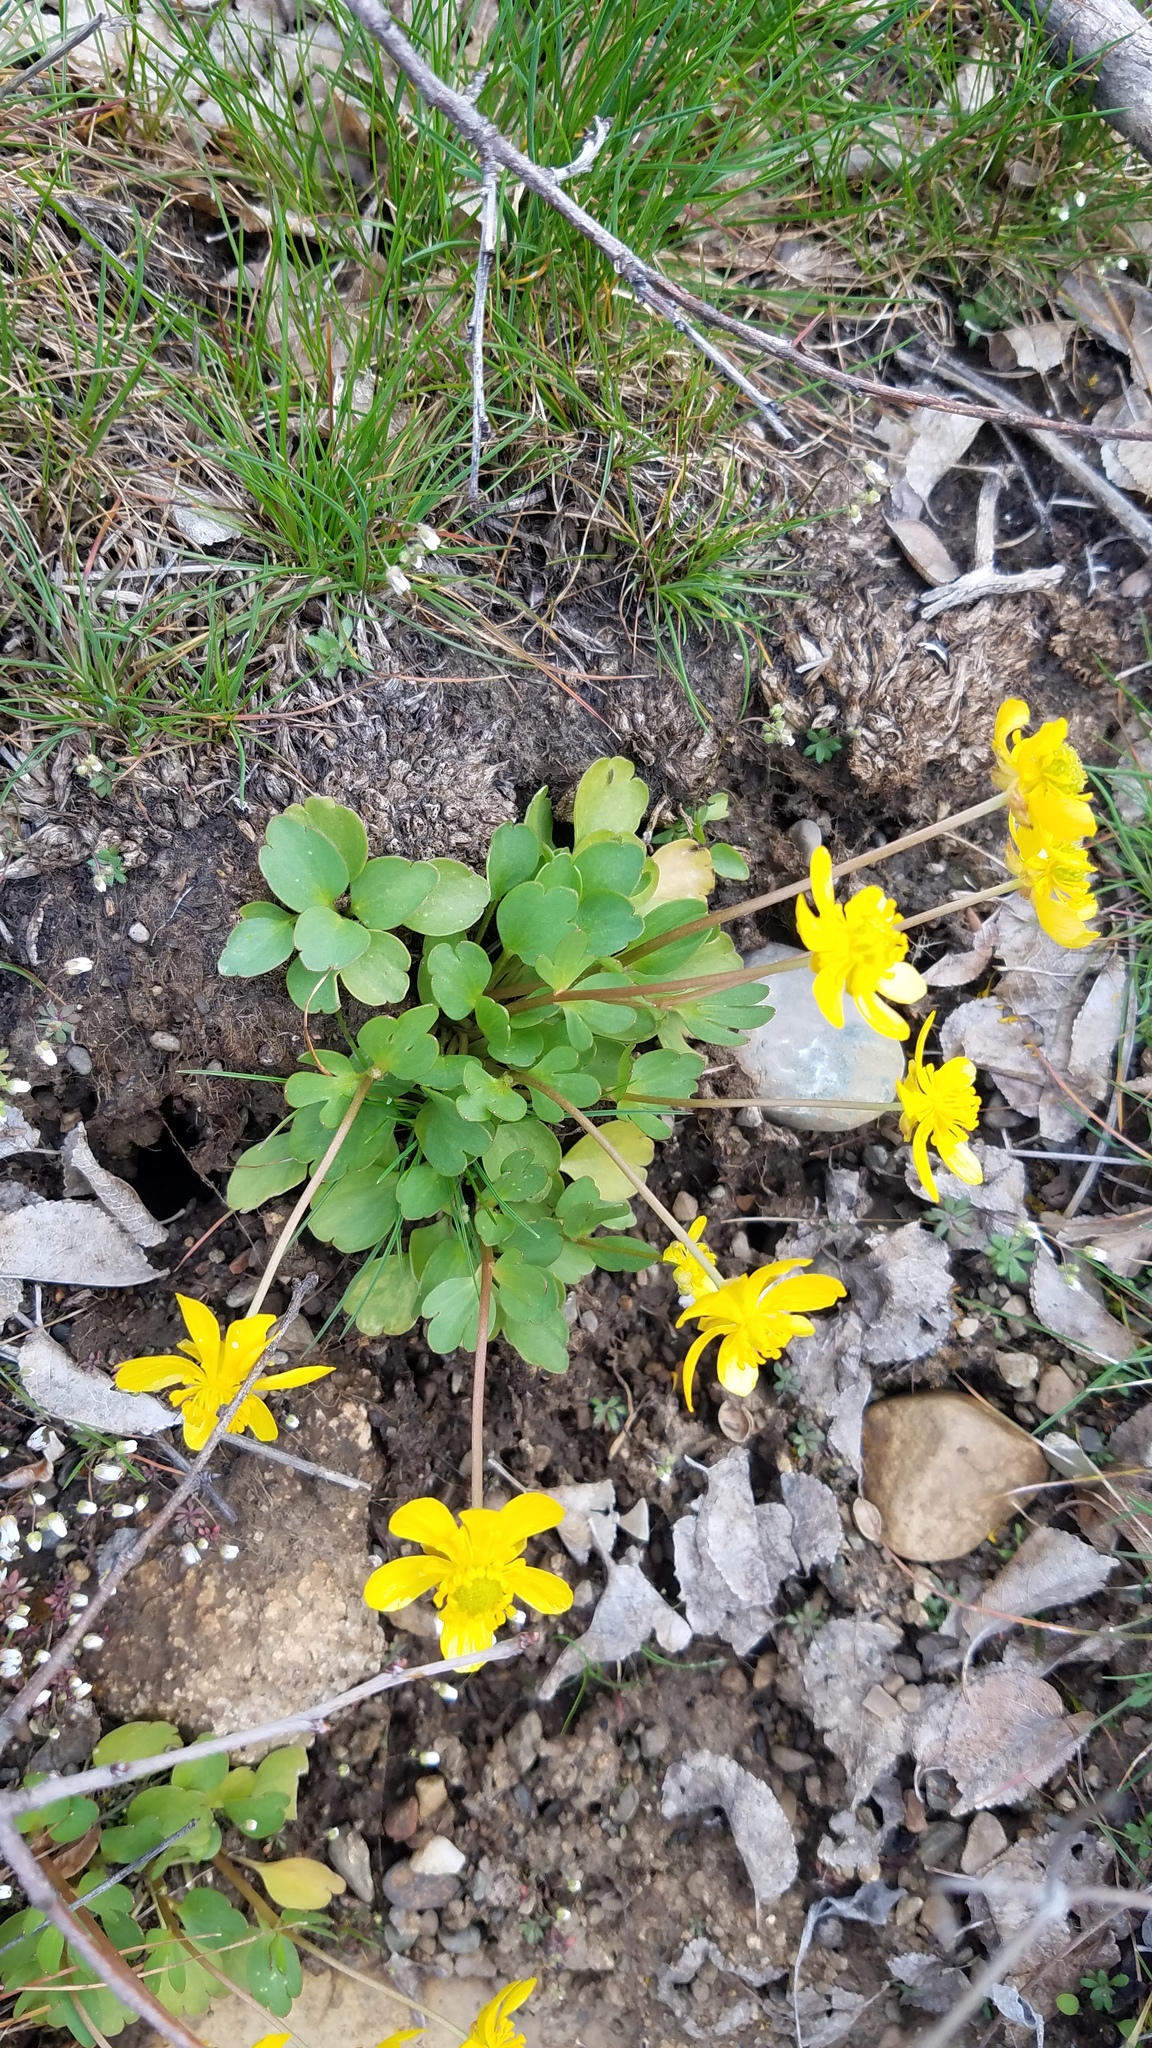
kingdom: Plantae
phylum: Tracheophyta
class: Magnoliopsida
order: Ranunculales
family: Ranunculaceae
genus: Ranunculus
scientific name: Ranunculus glaberrimus
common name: Sagebrush buttercup
